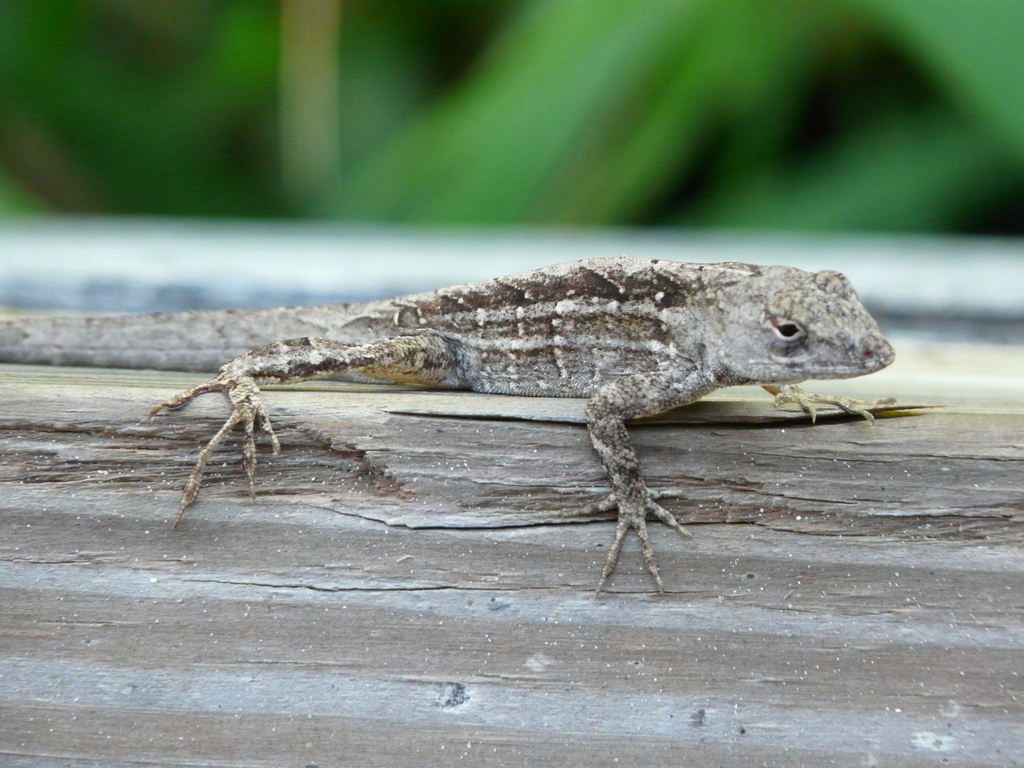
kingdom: Animalia
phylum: Chordata
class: Squamata
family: Dactyloidae
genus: Anolis
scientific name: Anolis sagrei
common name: Brown anole
